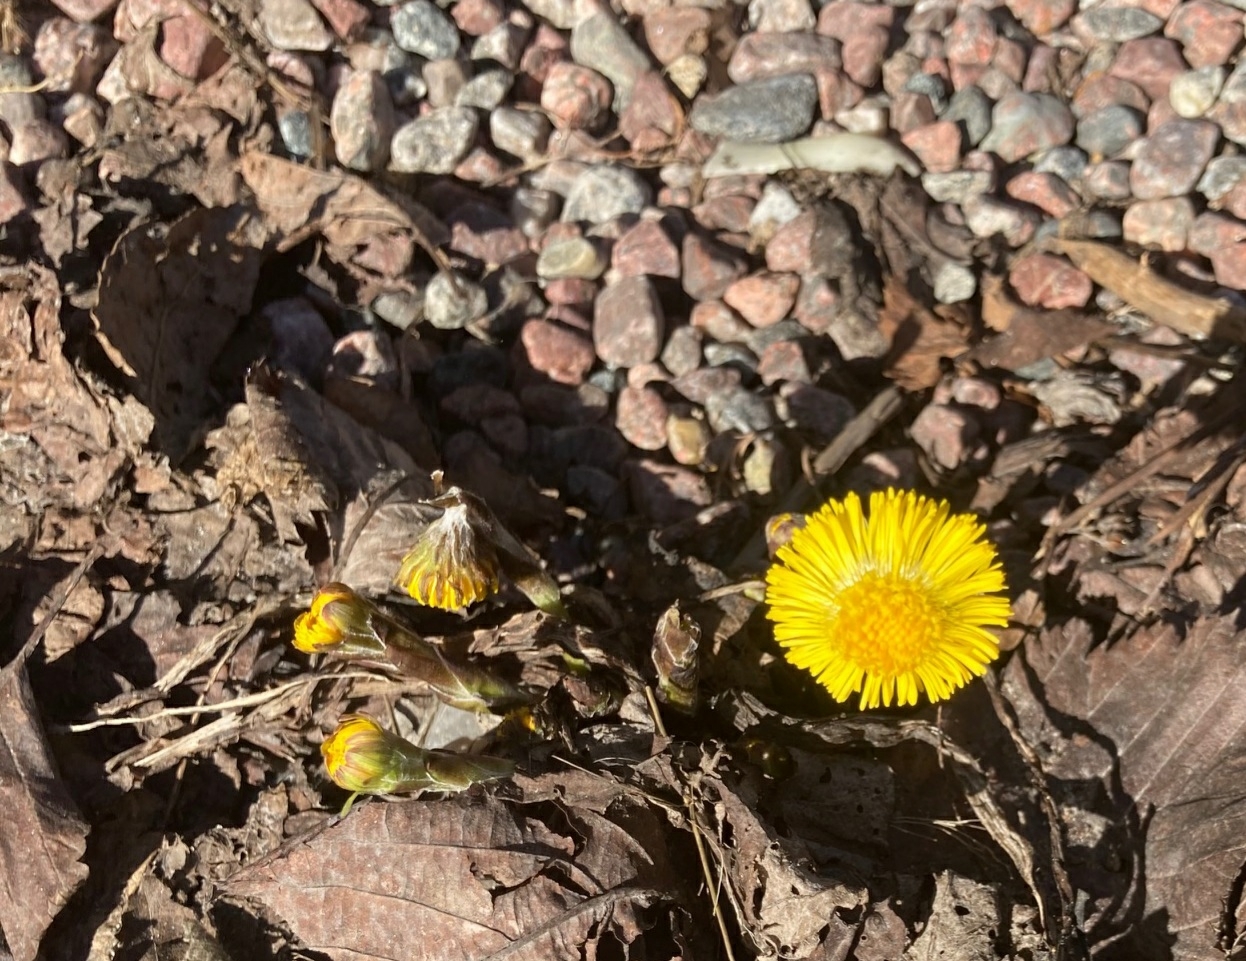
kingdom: Plantae
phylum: Tracheophyta
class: Magnoliopsida
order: Asterales
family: Asteraceae
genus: Tussilago
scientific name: Tussilago farfara
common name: Coltsfoot
